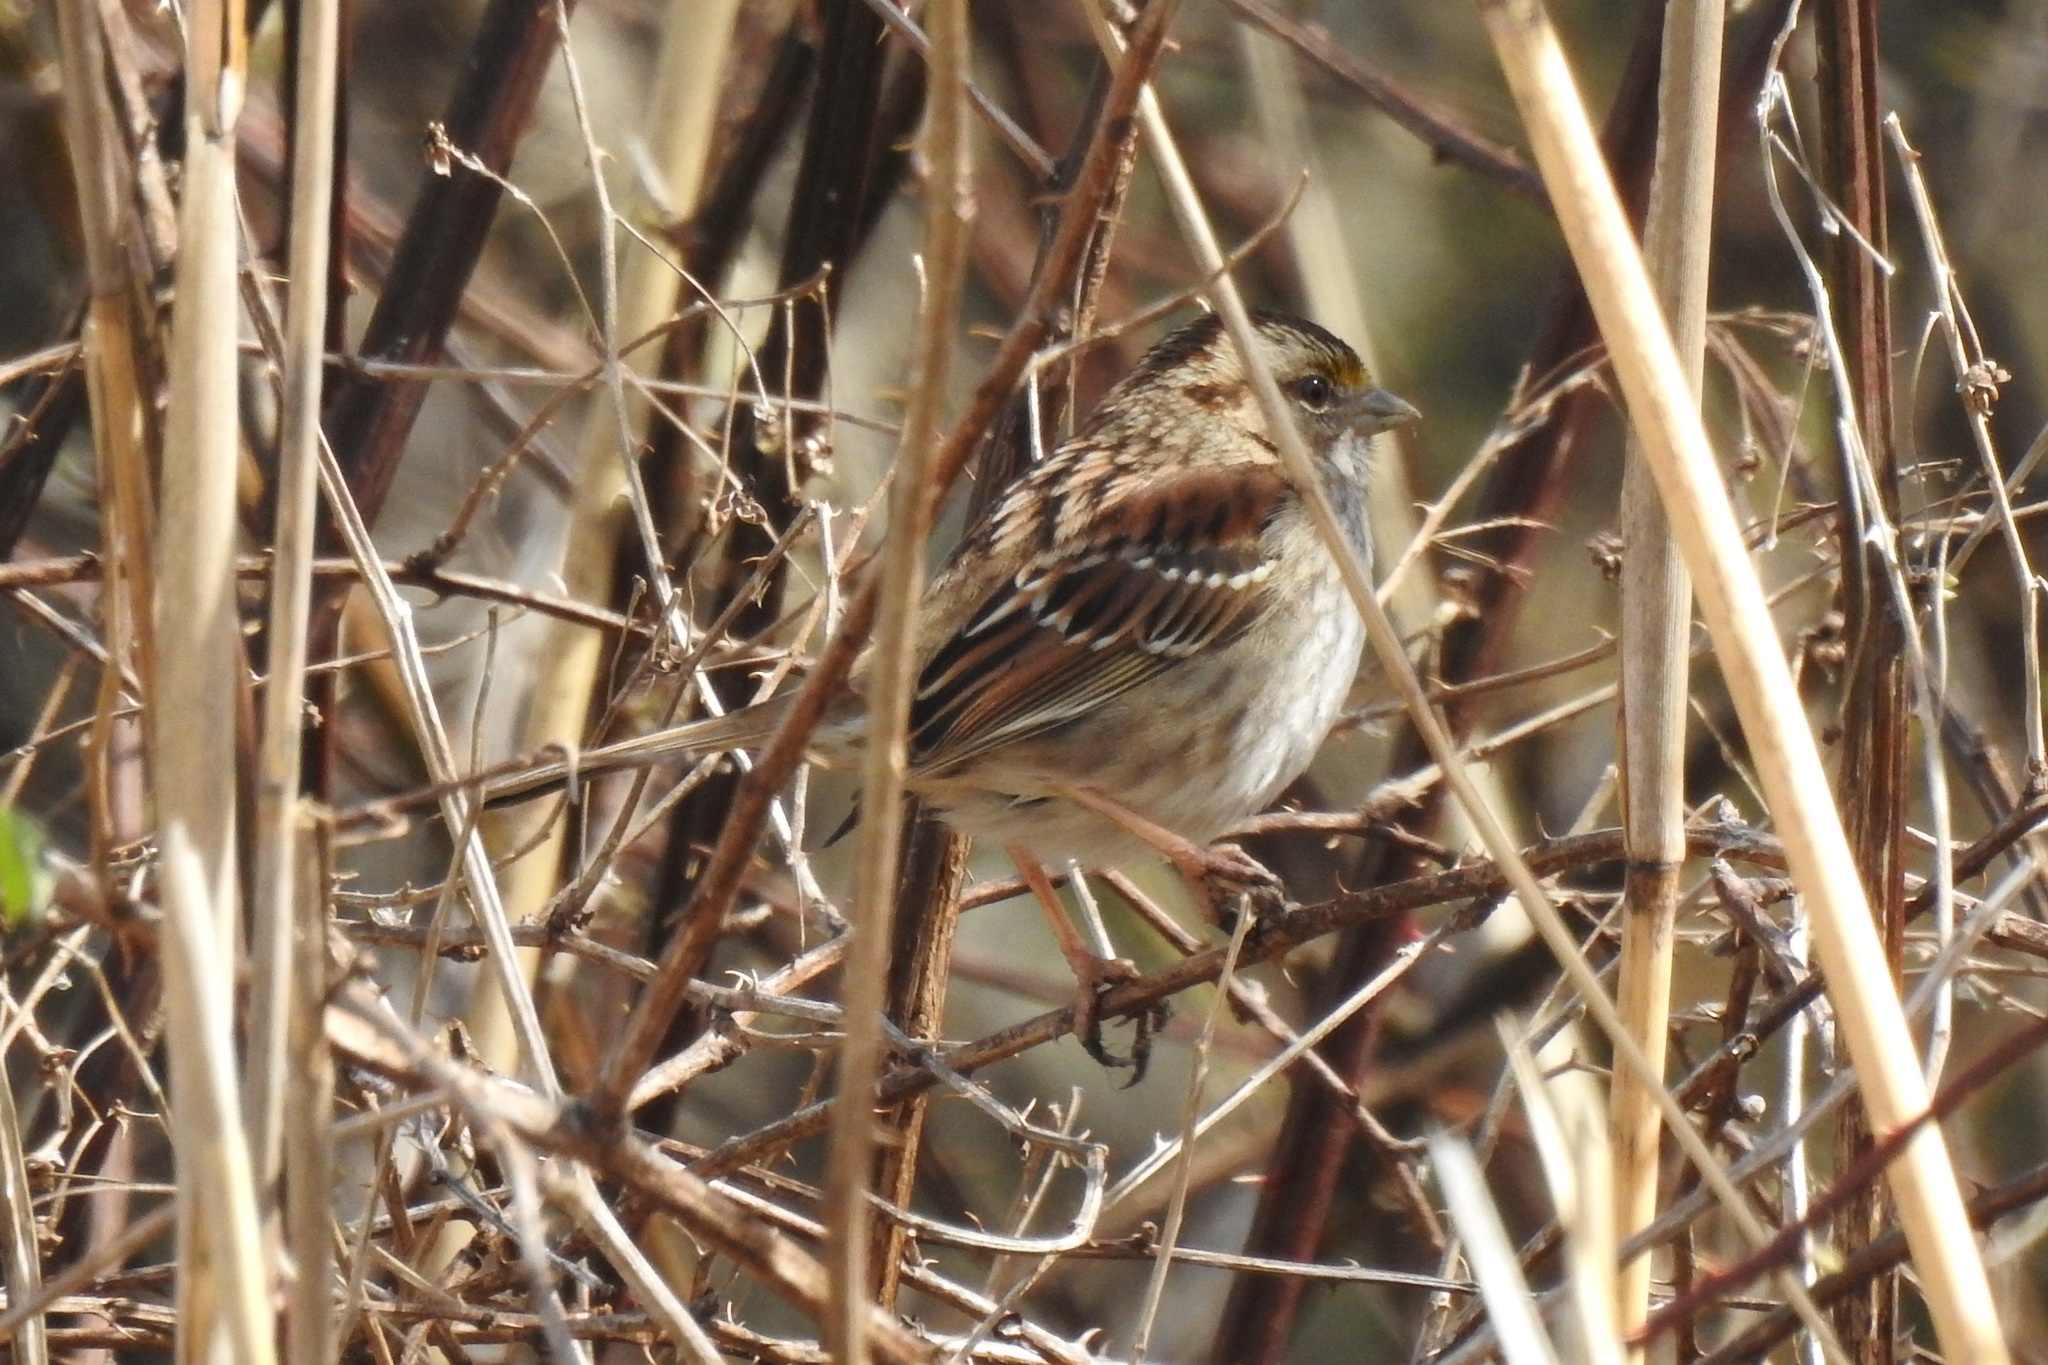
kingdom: Animalia
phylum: Chordata
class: Aves
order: Passeriformes
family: Passerellidae
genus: Zonotrichia
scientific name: Zonotrichia albicollis
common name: White-throated sparrow
